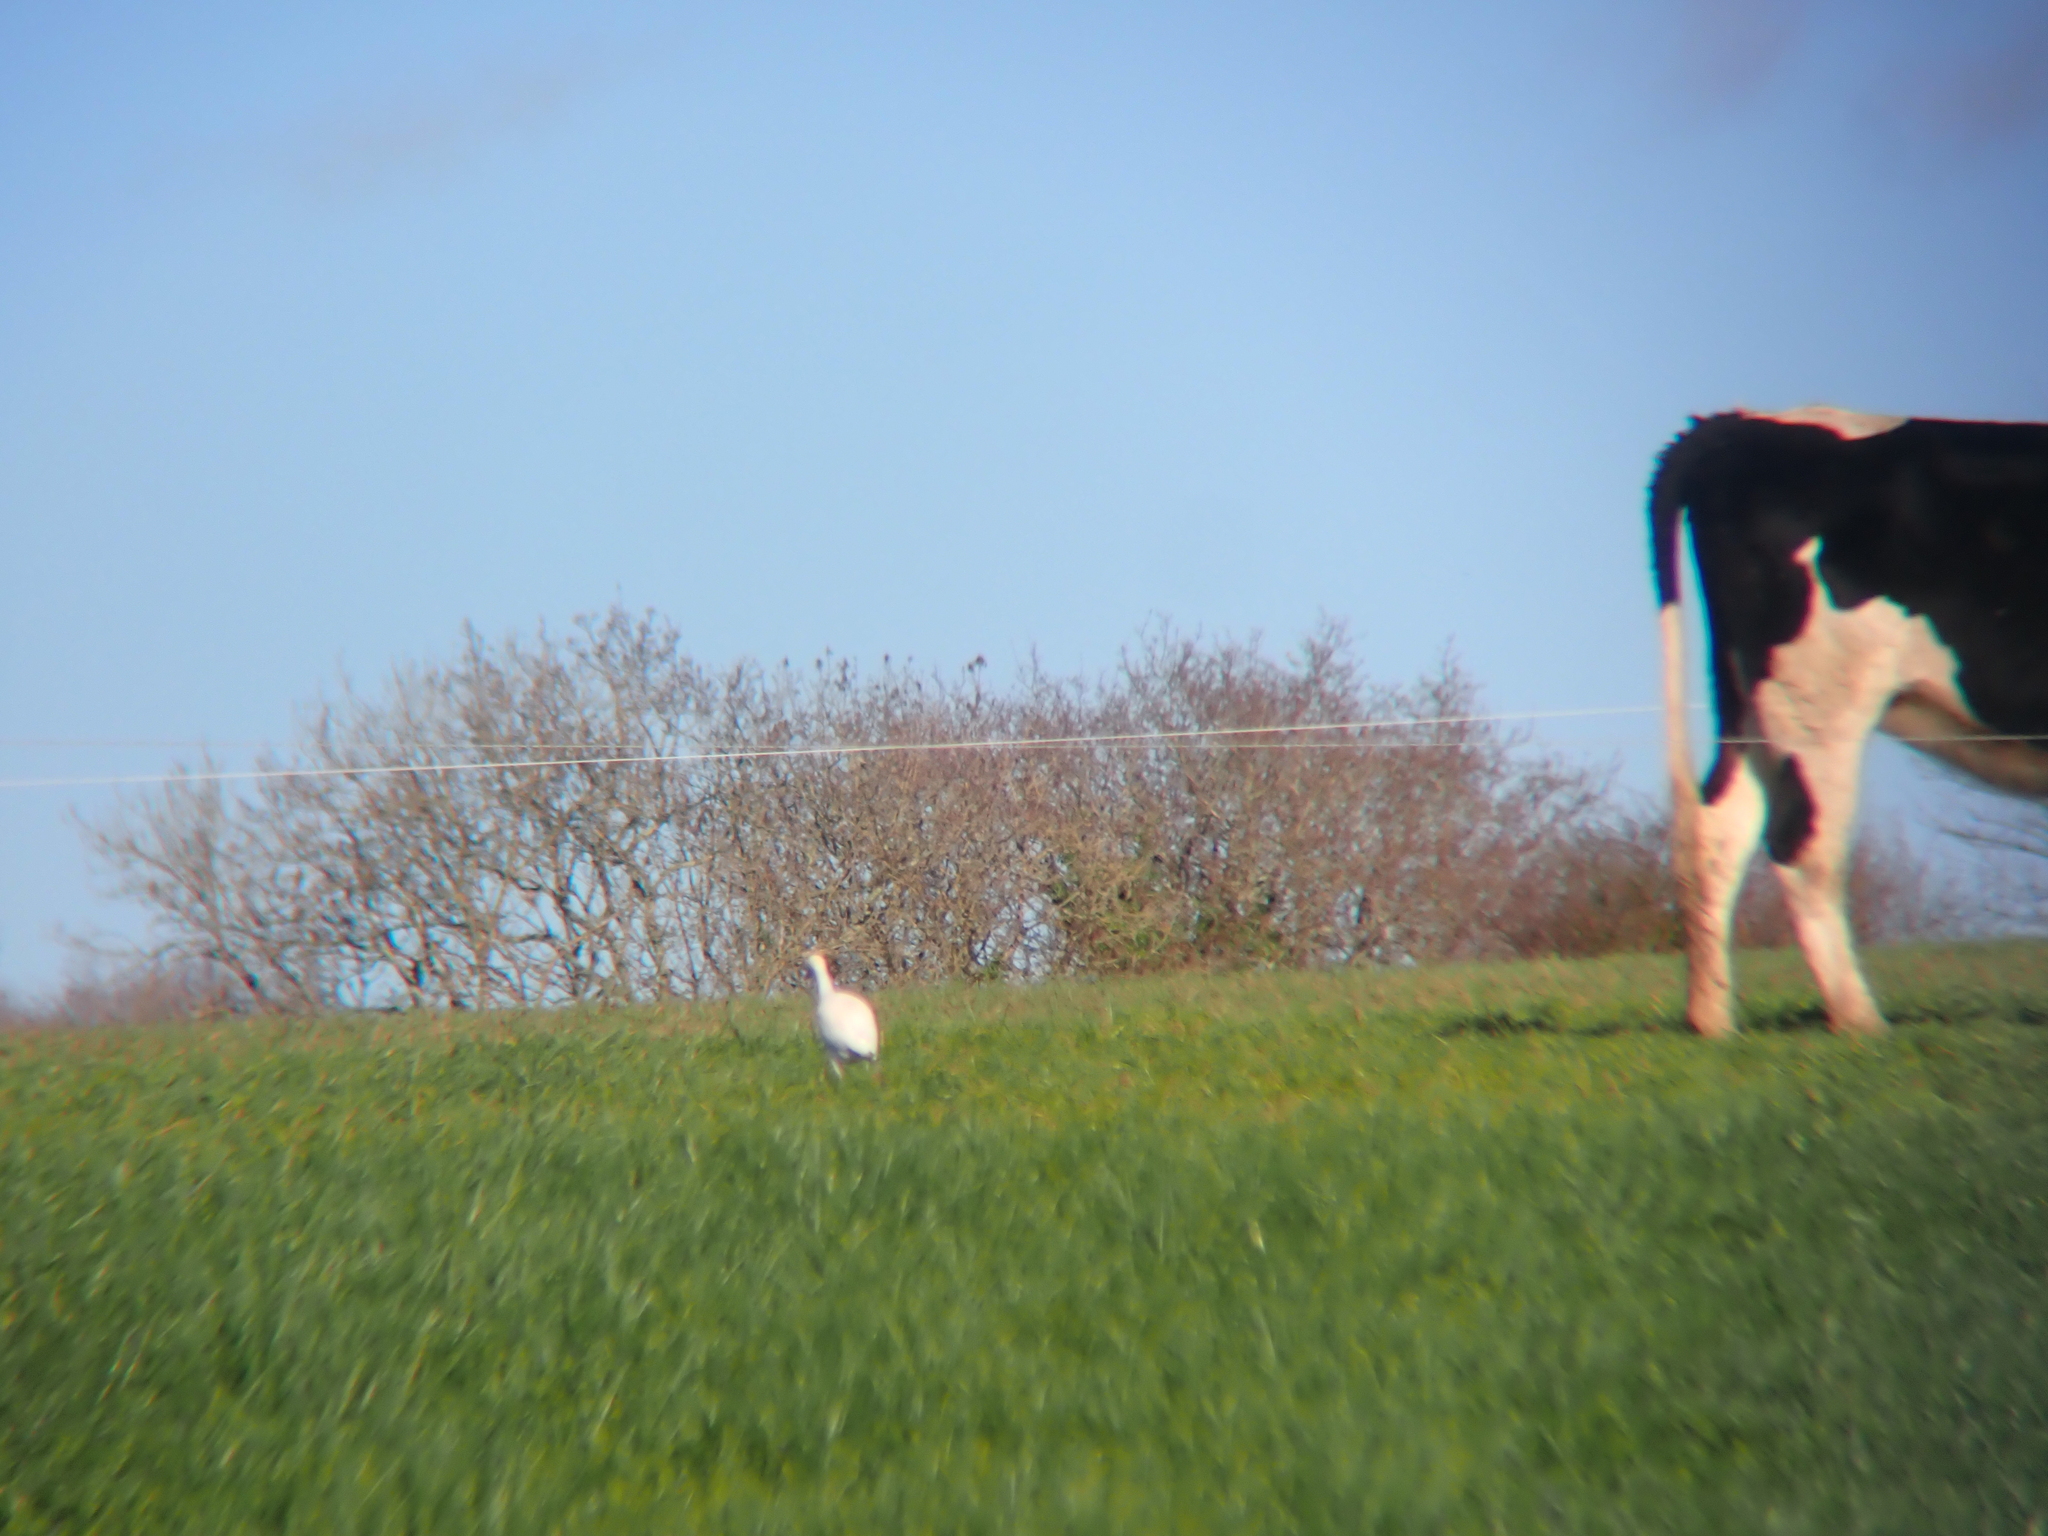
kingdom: Animalia
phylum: Chordata
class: Aves
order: Pelecaniformes
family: Ardeidae
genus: Bubulcus
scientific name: Bubulcus ibis
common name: Cattle egret
